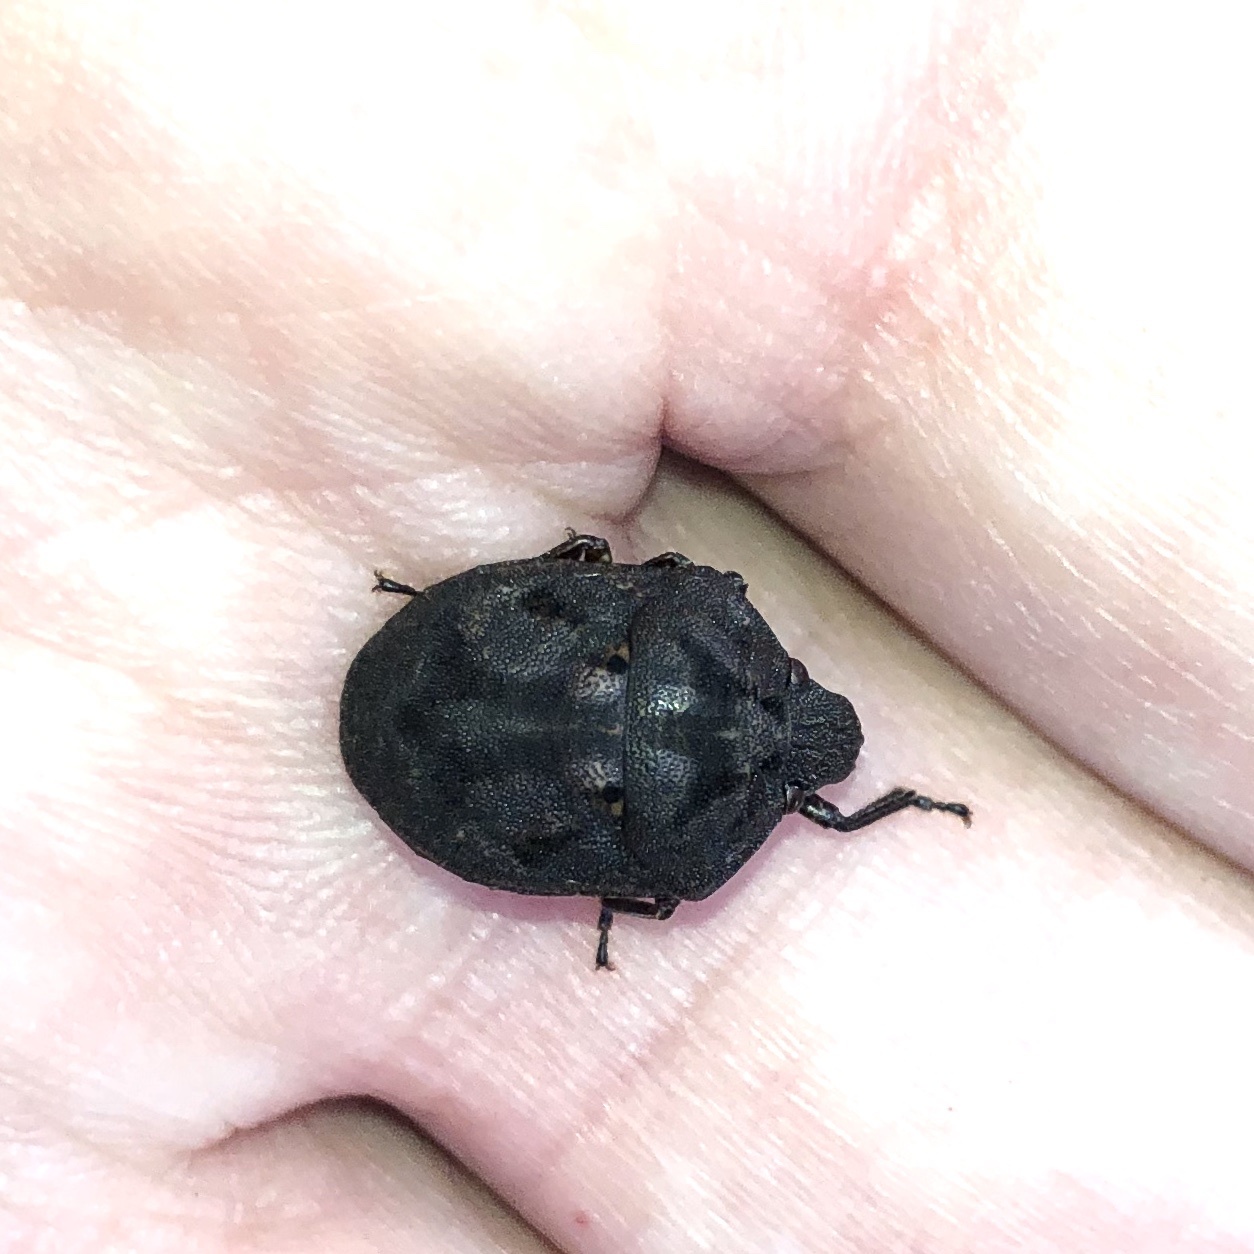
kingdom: Animalia
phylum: Arthropoda
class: Insecta
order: Hemiptera
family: Scutelleridae
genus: Tetyra
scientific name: Tetyra bipunctata
